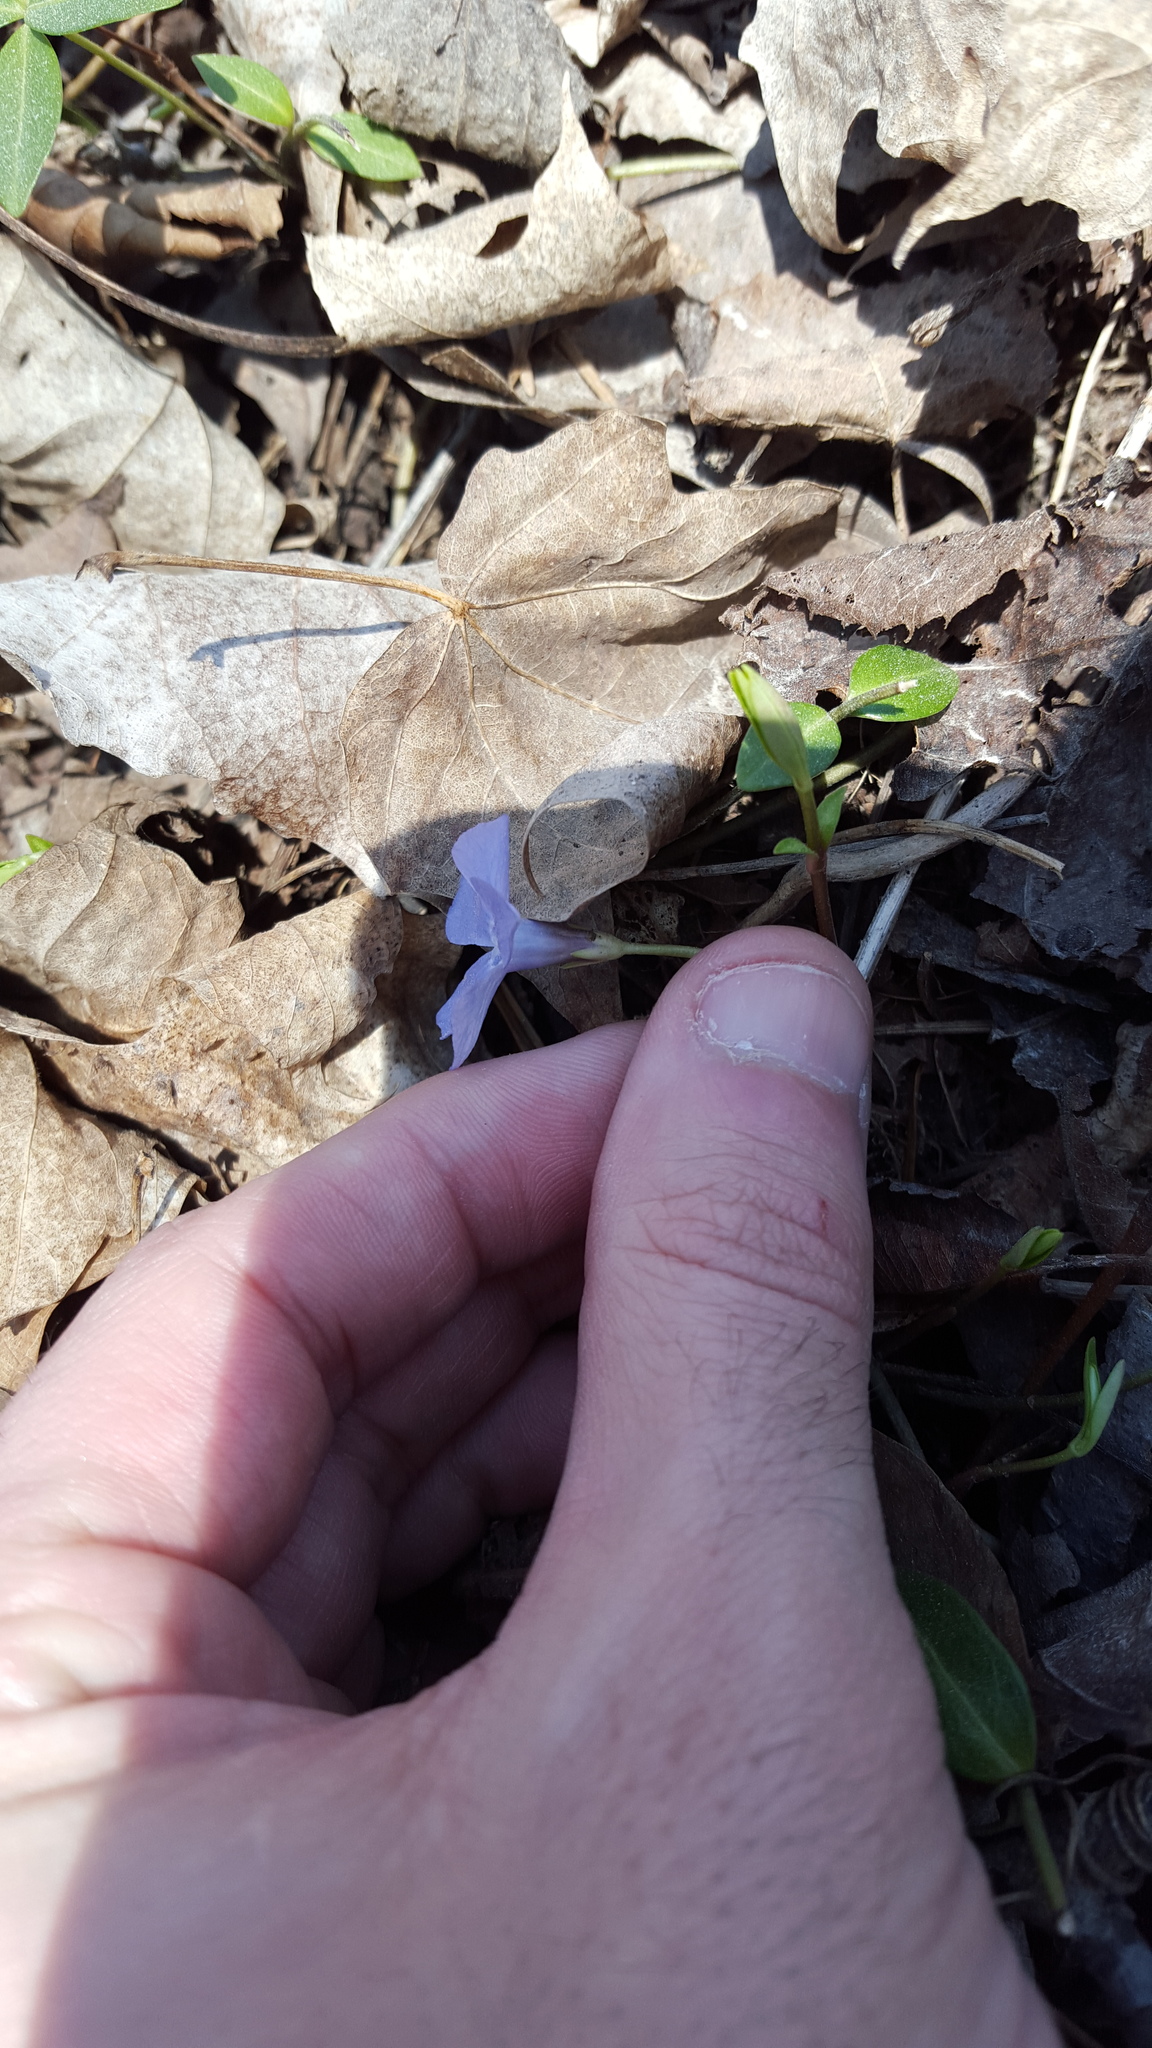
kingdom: Plantae
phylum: Tracheophyta
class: Magnoliopsida
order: Gentianales
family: Apocynaceae
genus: Vinca
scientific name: Vinca minor
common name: Lesser periwinkle
